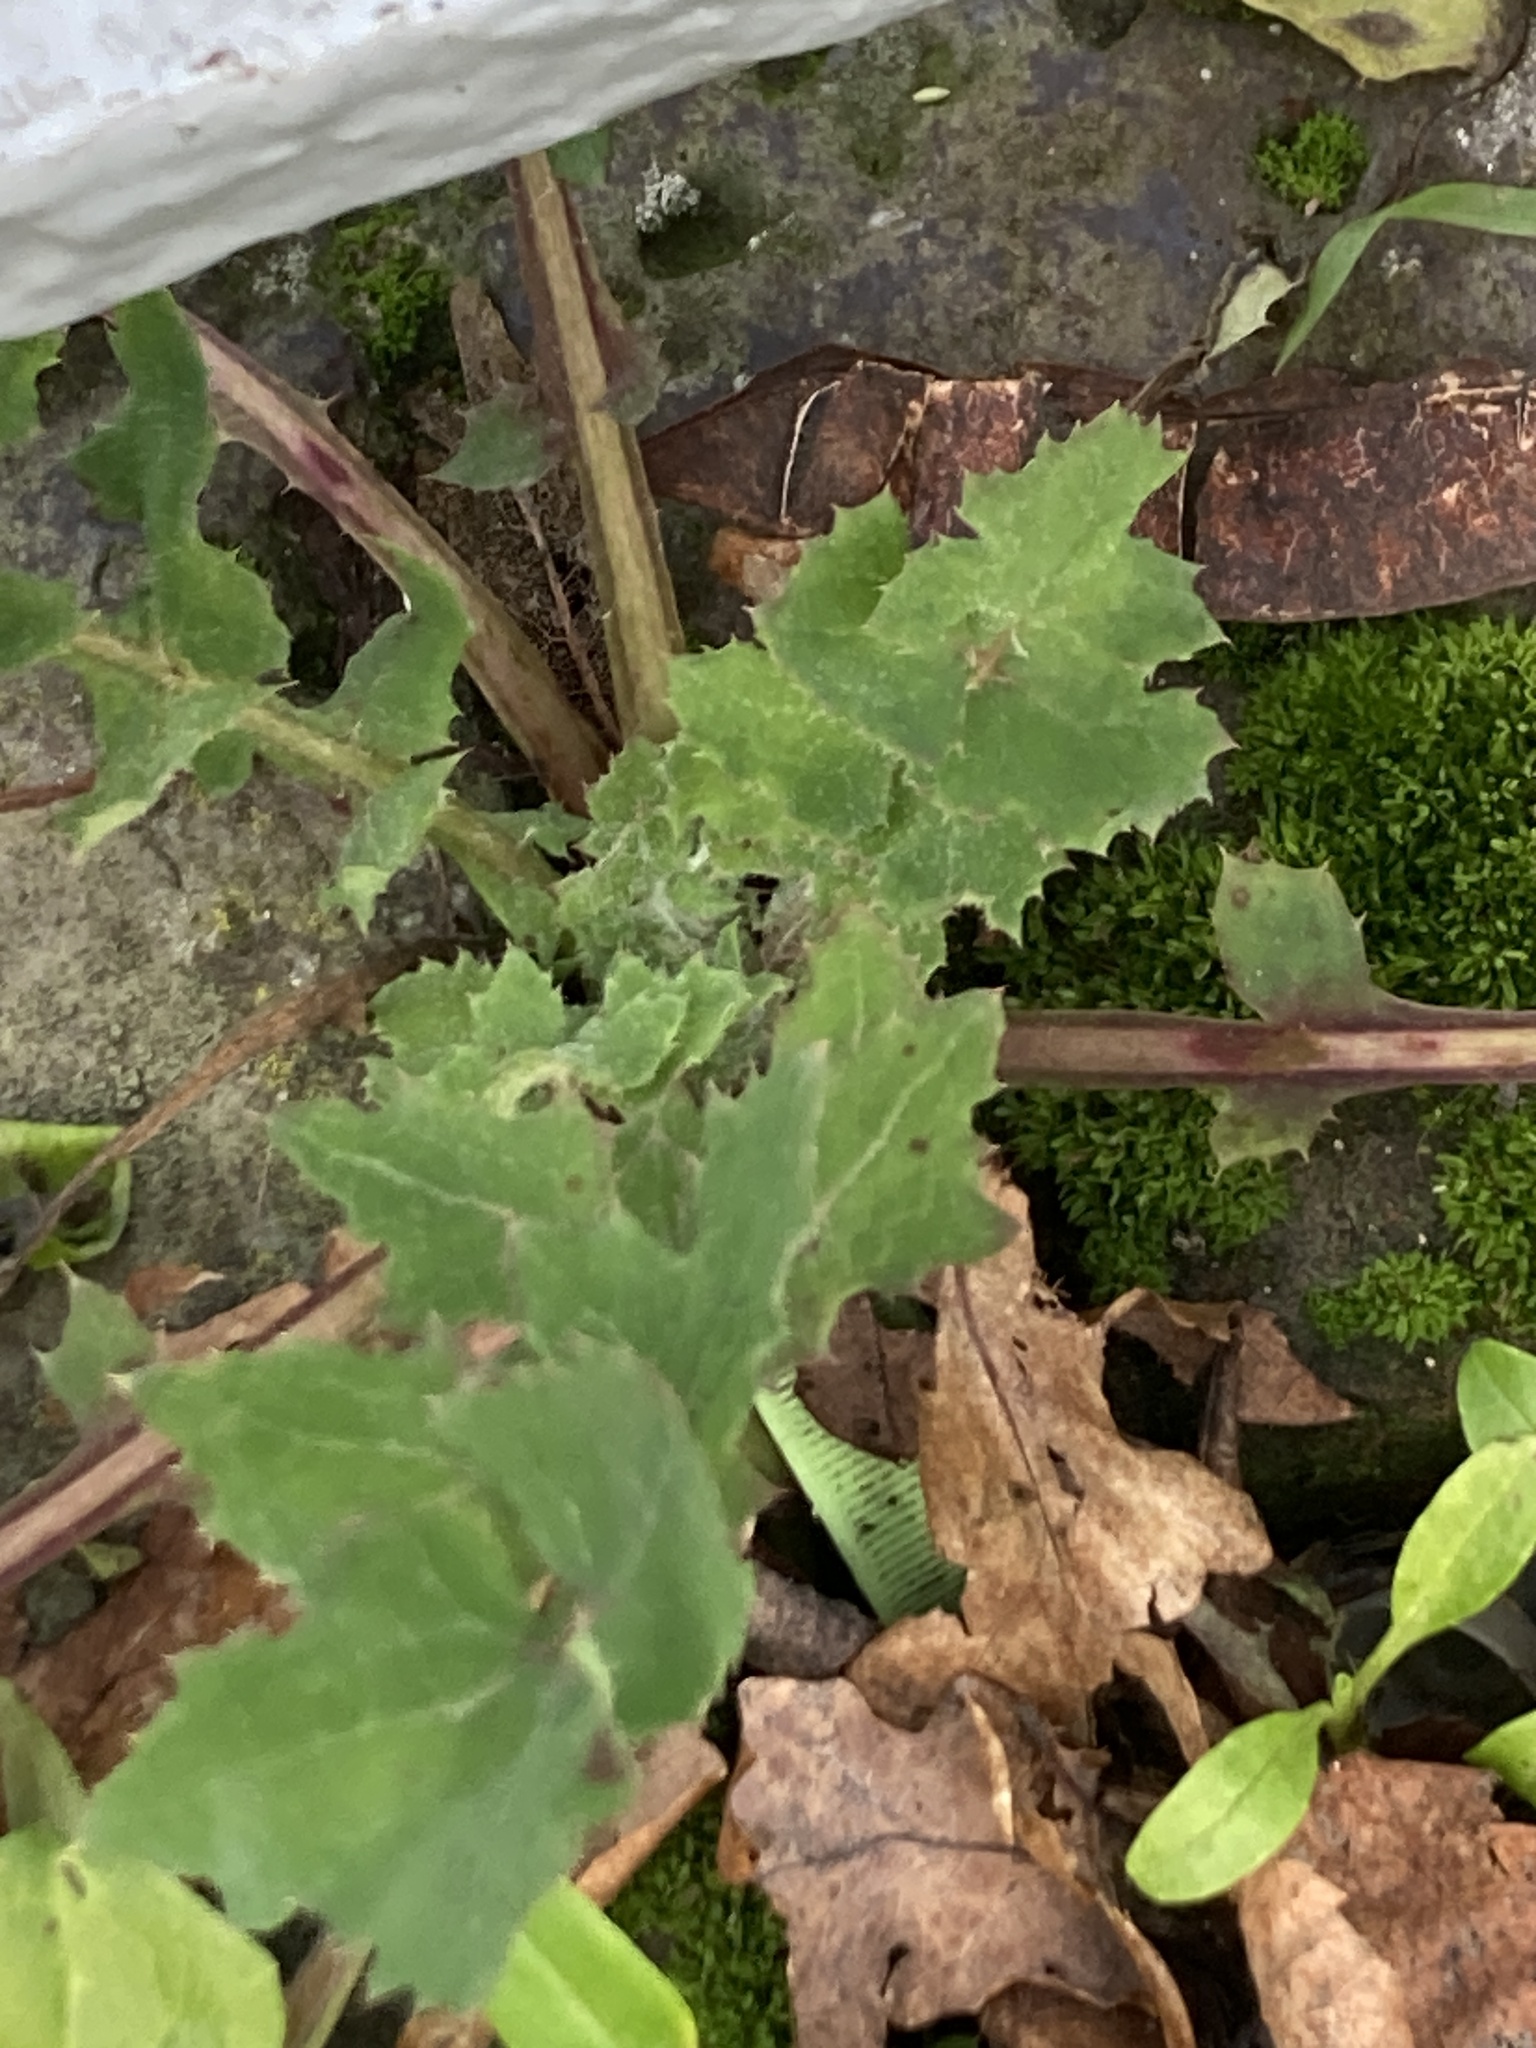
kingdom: Plantae
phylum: Tracheophyta
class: Magnoliopsida
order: Asterales
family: Asteraceae
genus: Sonchus
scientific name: Sonchus oleraceus
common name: Common sowthistle
